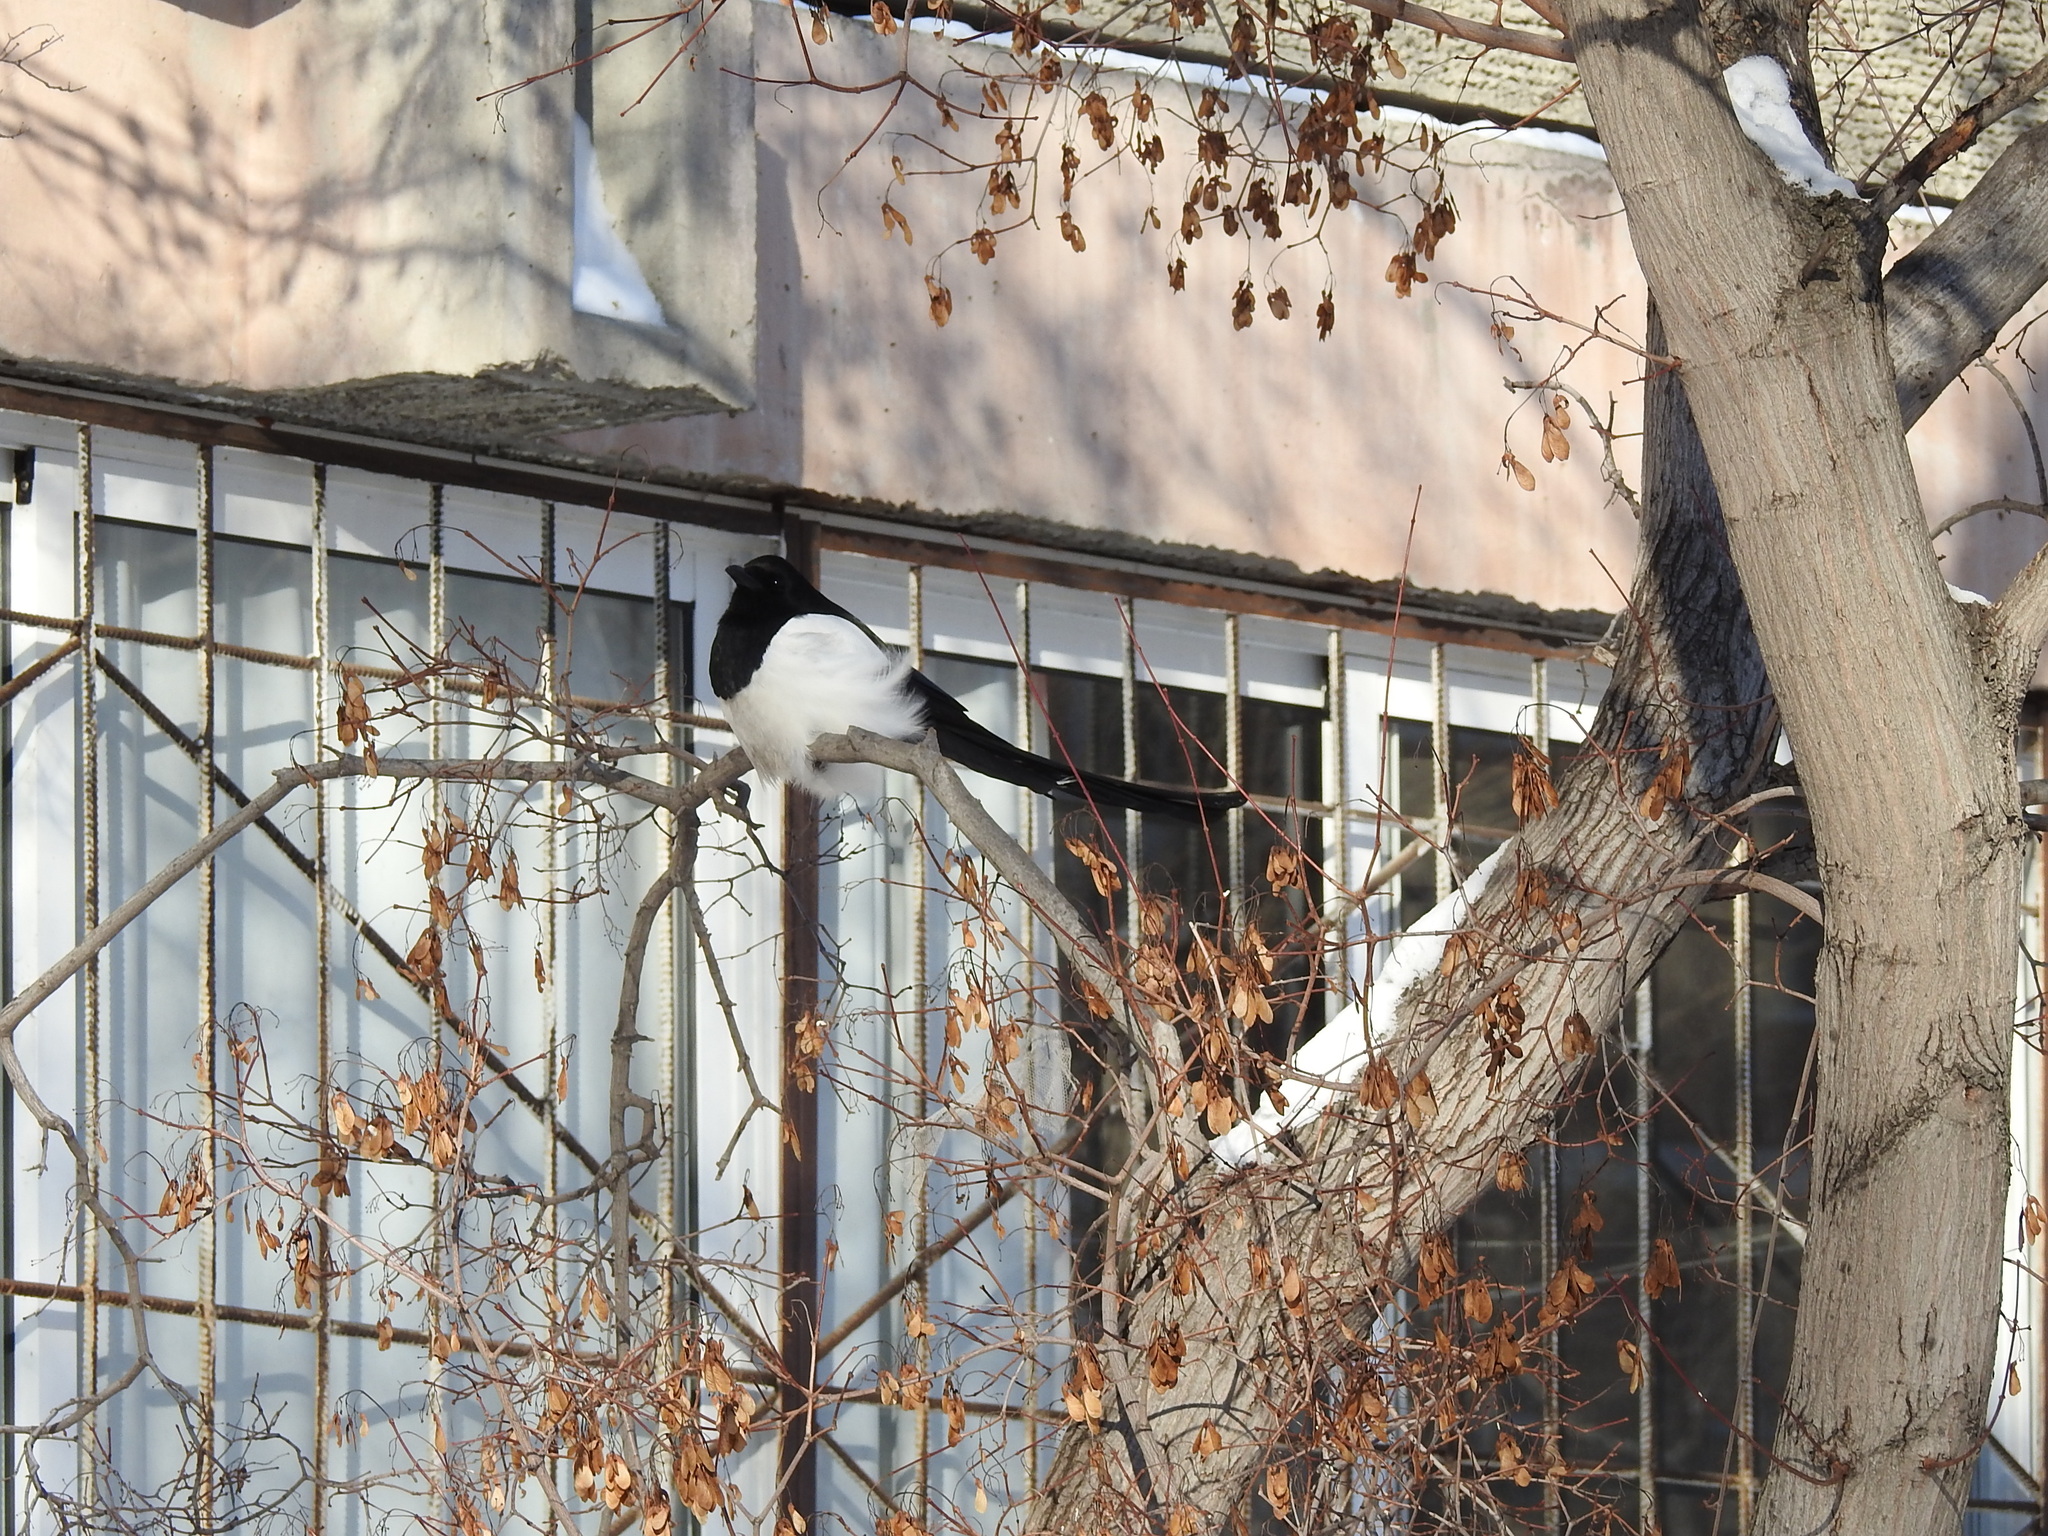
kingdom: Animalia
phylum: Chordata
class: Aves
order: Passeriformes
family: Corvidae
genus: Pica
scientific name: Pica pica
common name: Eurasian magpie
